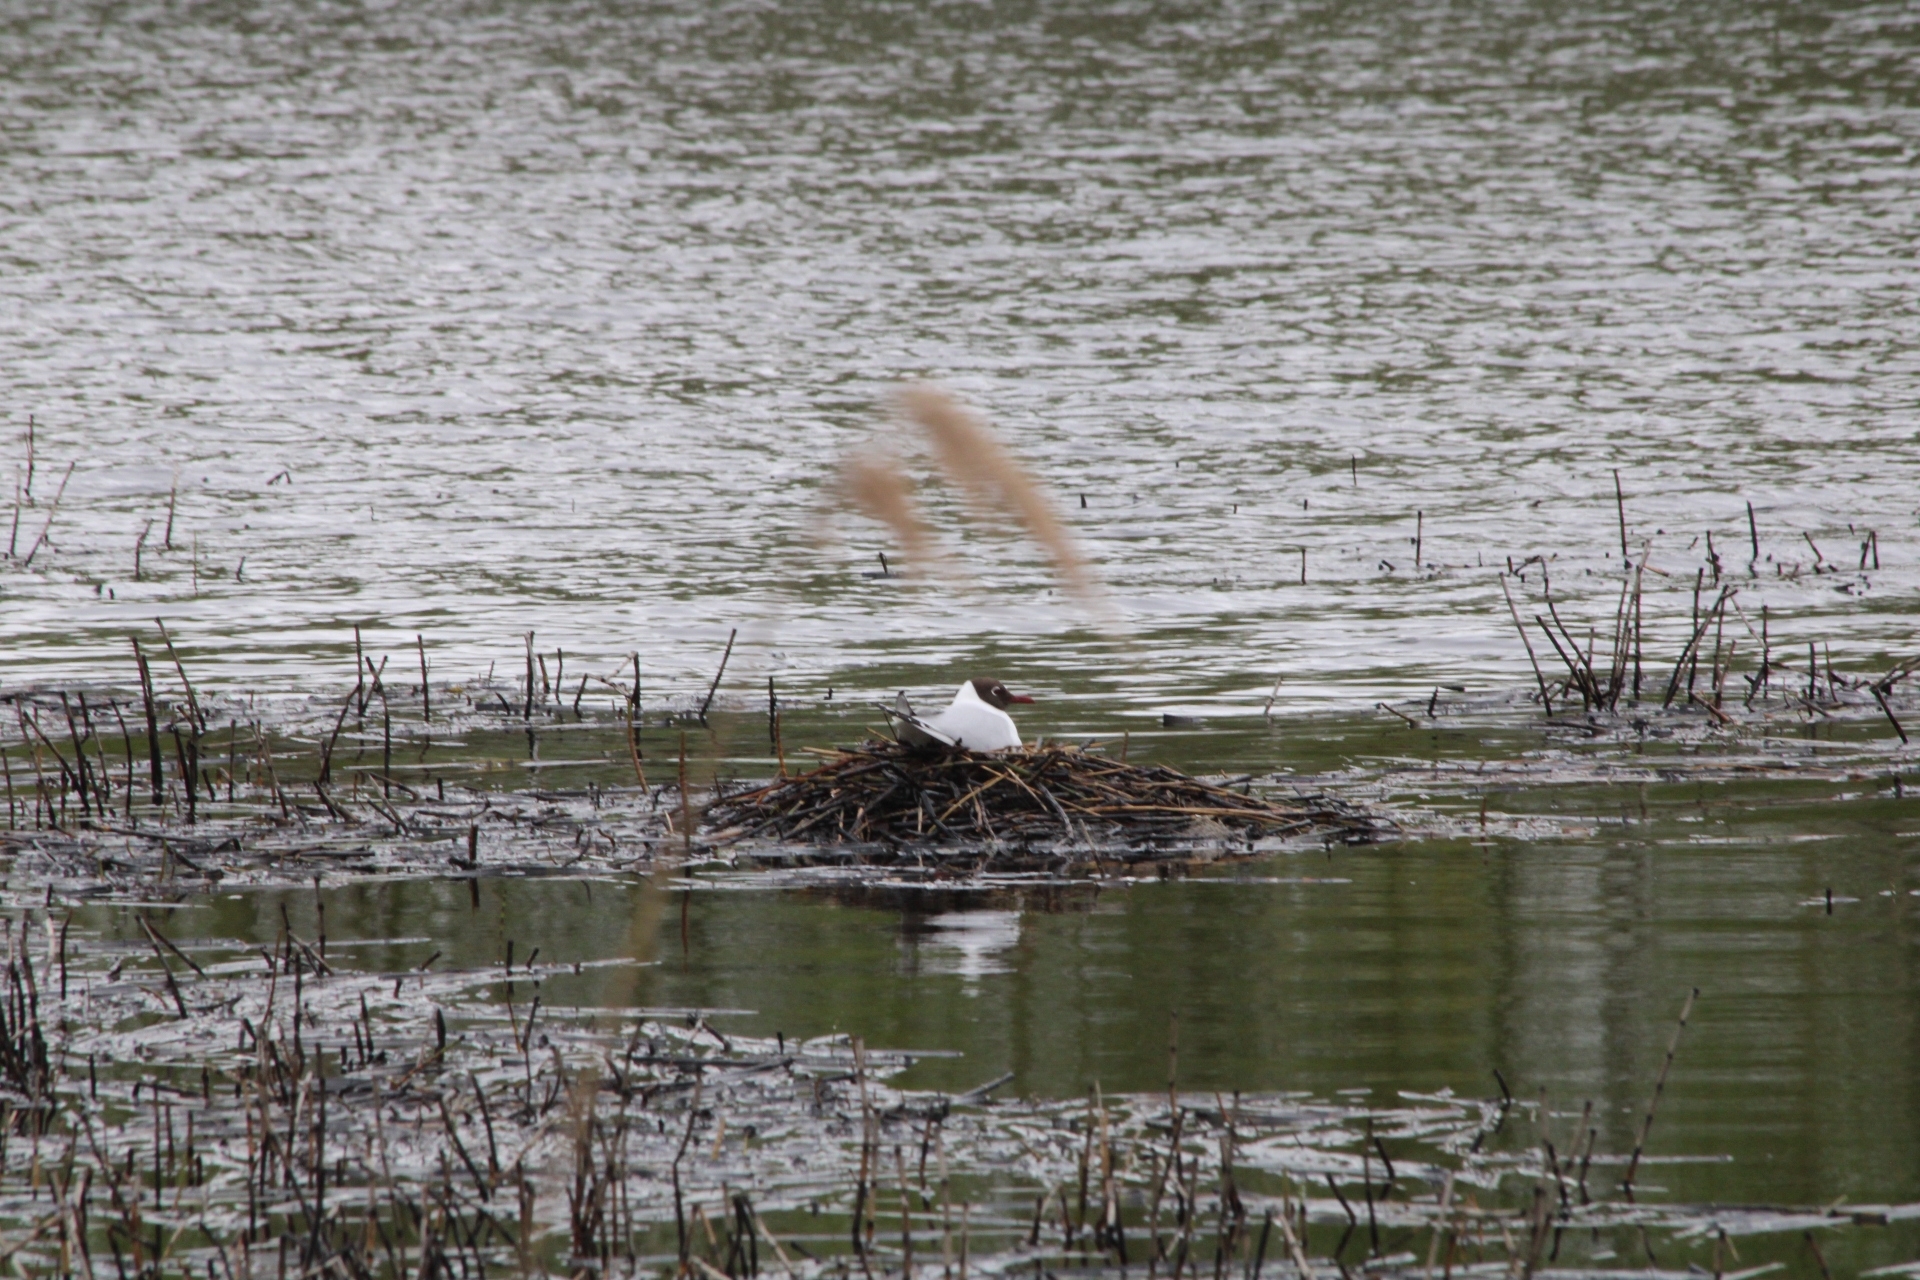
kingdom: Animalia
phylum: Chordata
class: Aves
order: Charadriiformes
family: Laridae
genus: Chroicocephalus
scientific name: Chroicocephalus ridibundus
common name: Black-headed gull
